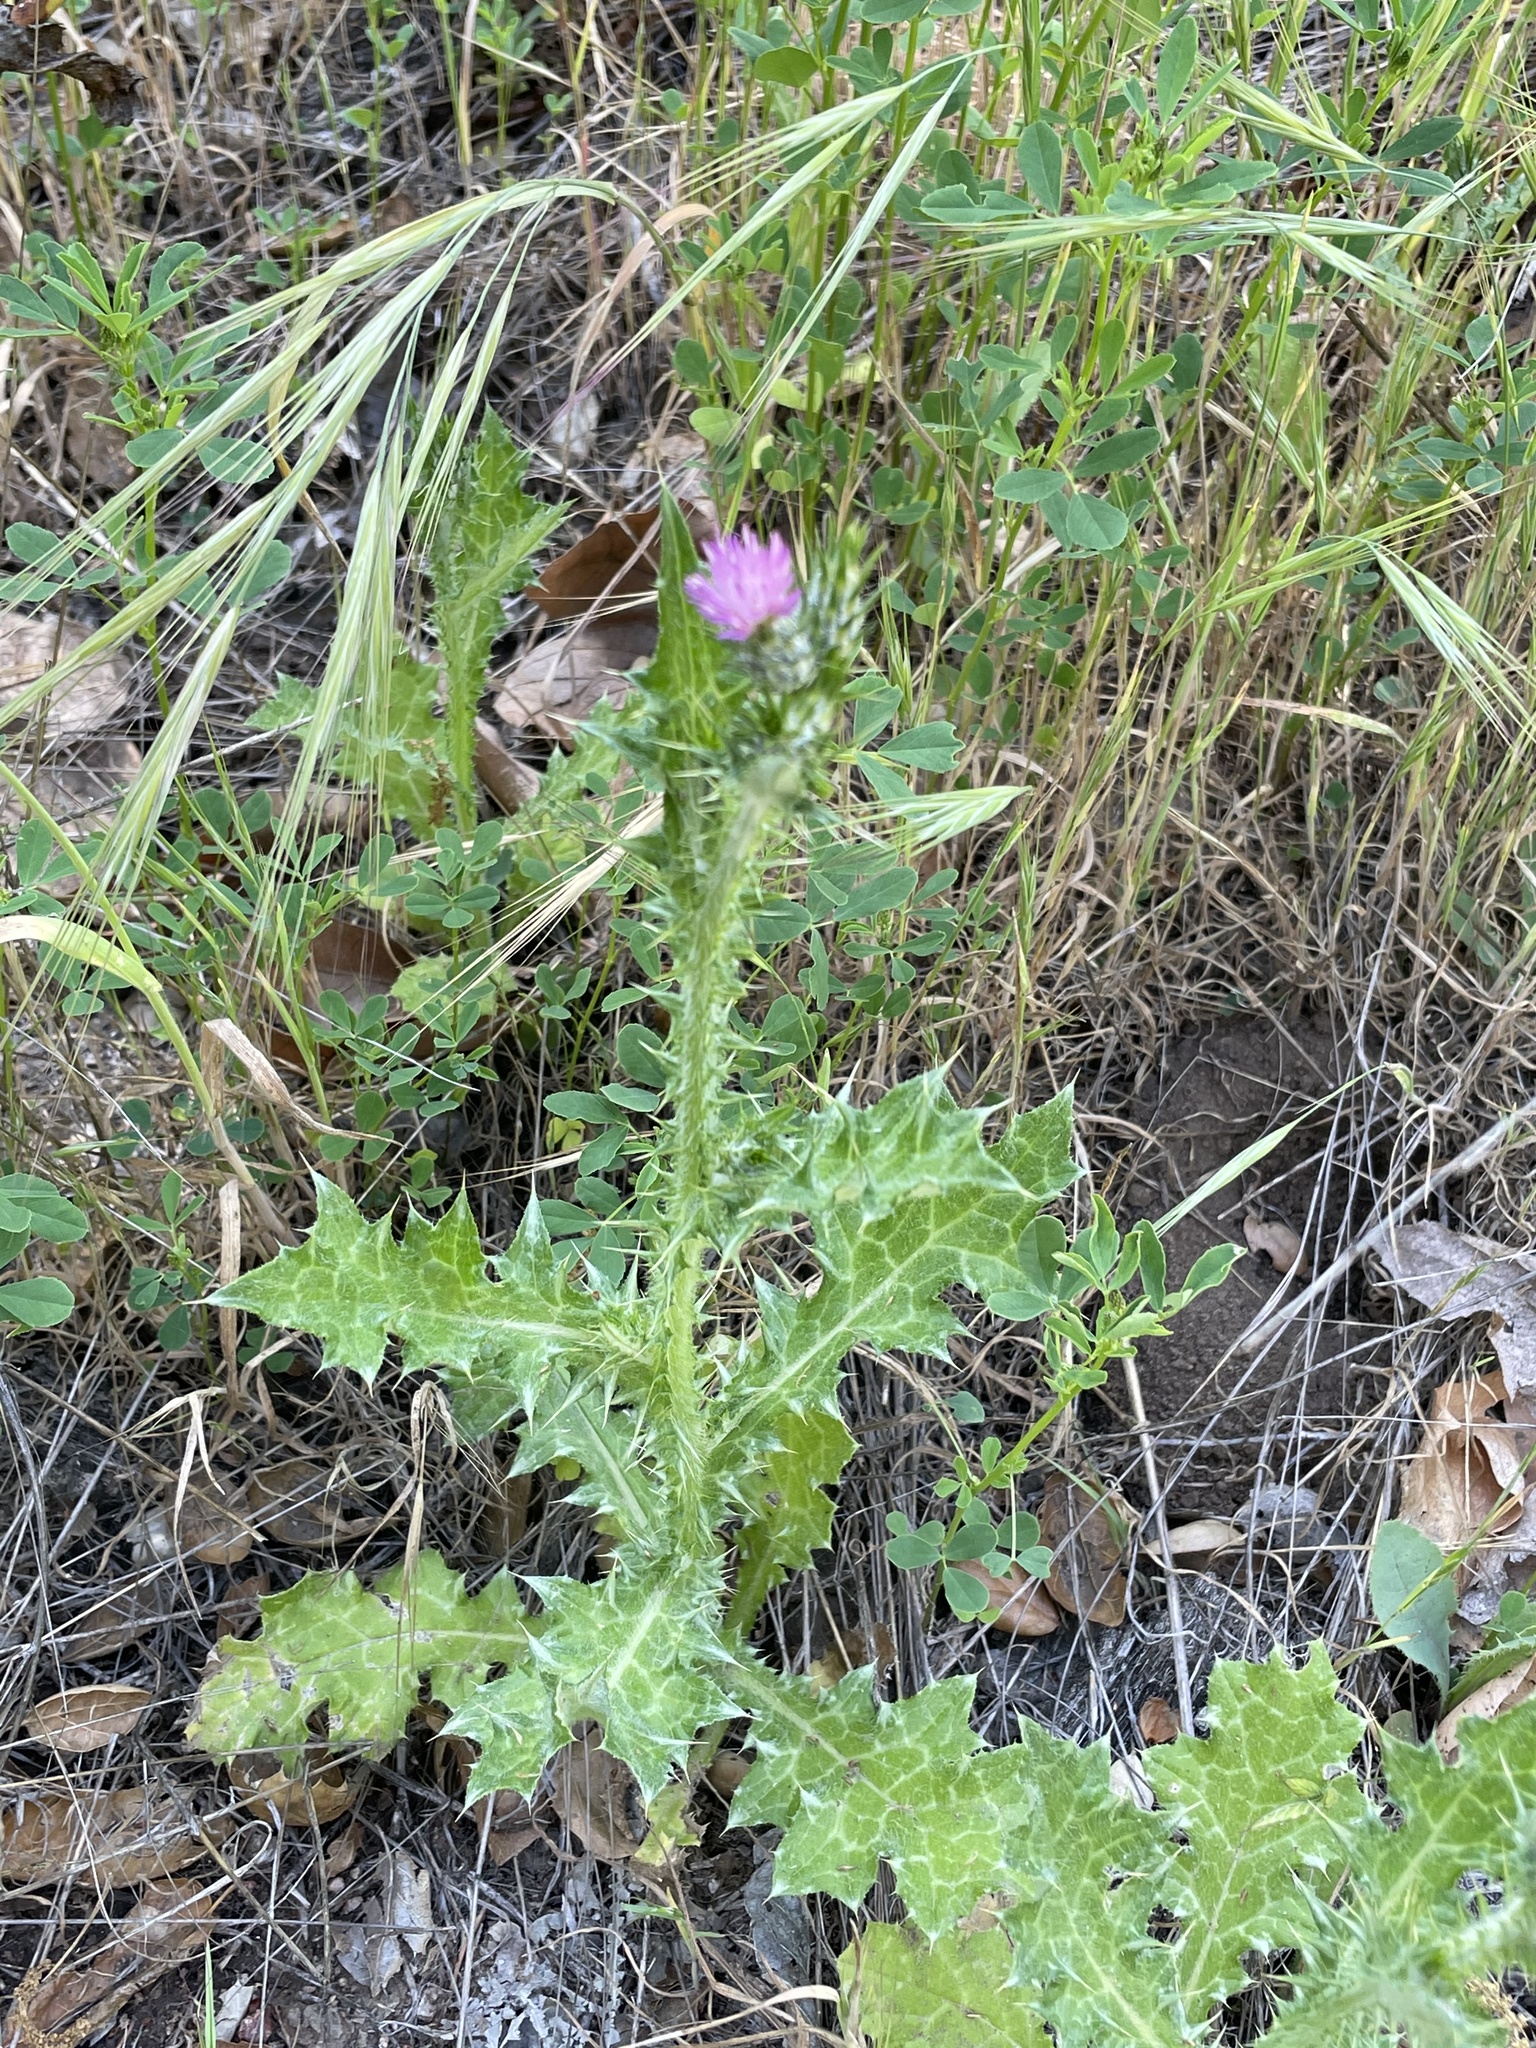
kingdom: Plantae
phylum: Tracheophyta
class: Magnoliopsida
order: Asterales
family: Asteraceae
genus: Carduus
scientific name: Carduus pycnocephalus
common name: Plymouth thistle
